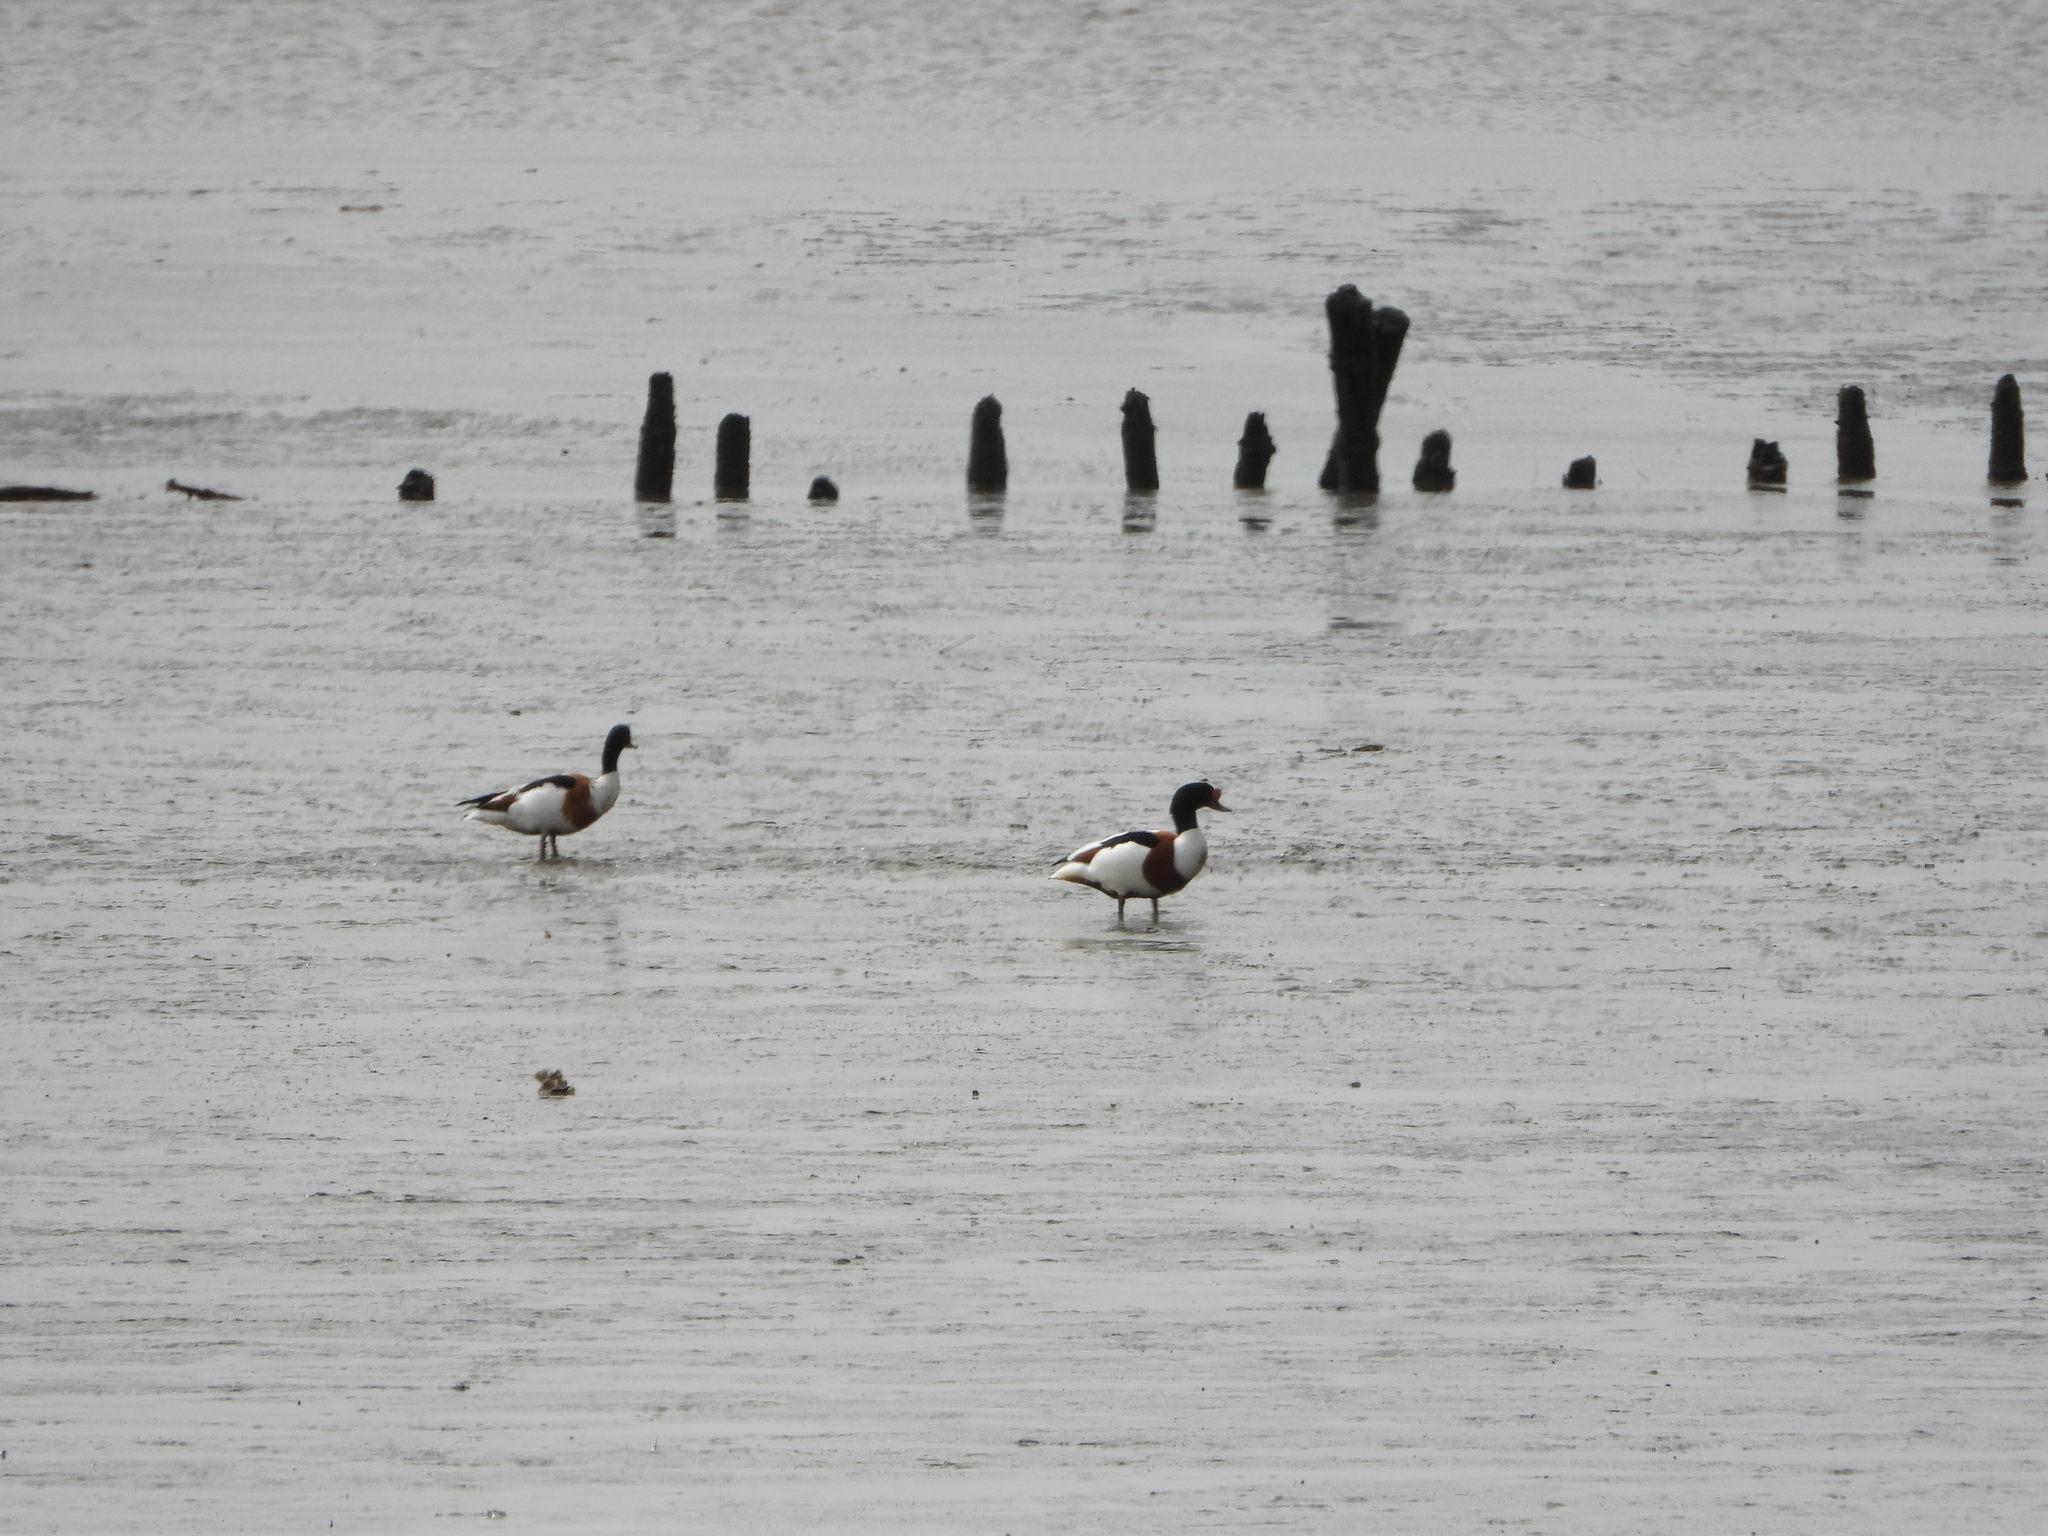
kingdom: Animalia
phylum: Chordata
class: Aves
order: Anseriformes
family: Anatidae
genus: Tadorna
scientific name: Tadorna tadorna
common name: Common shelduck
